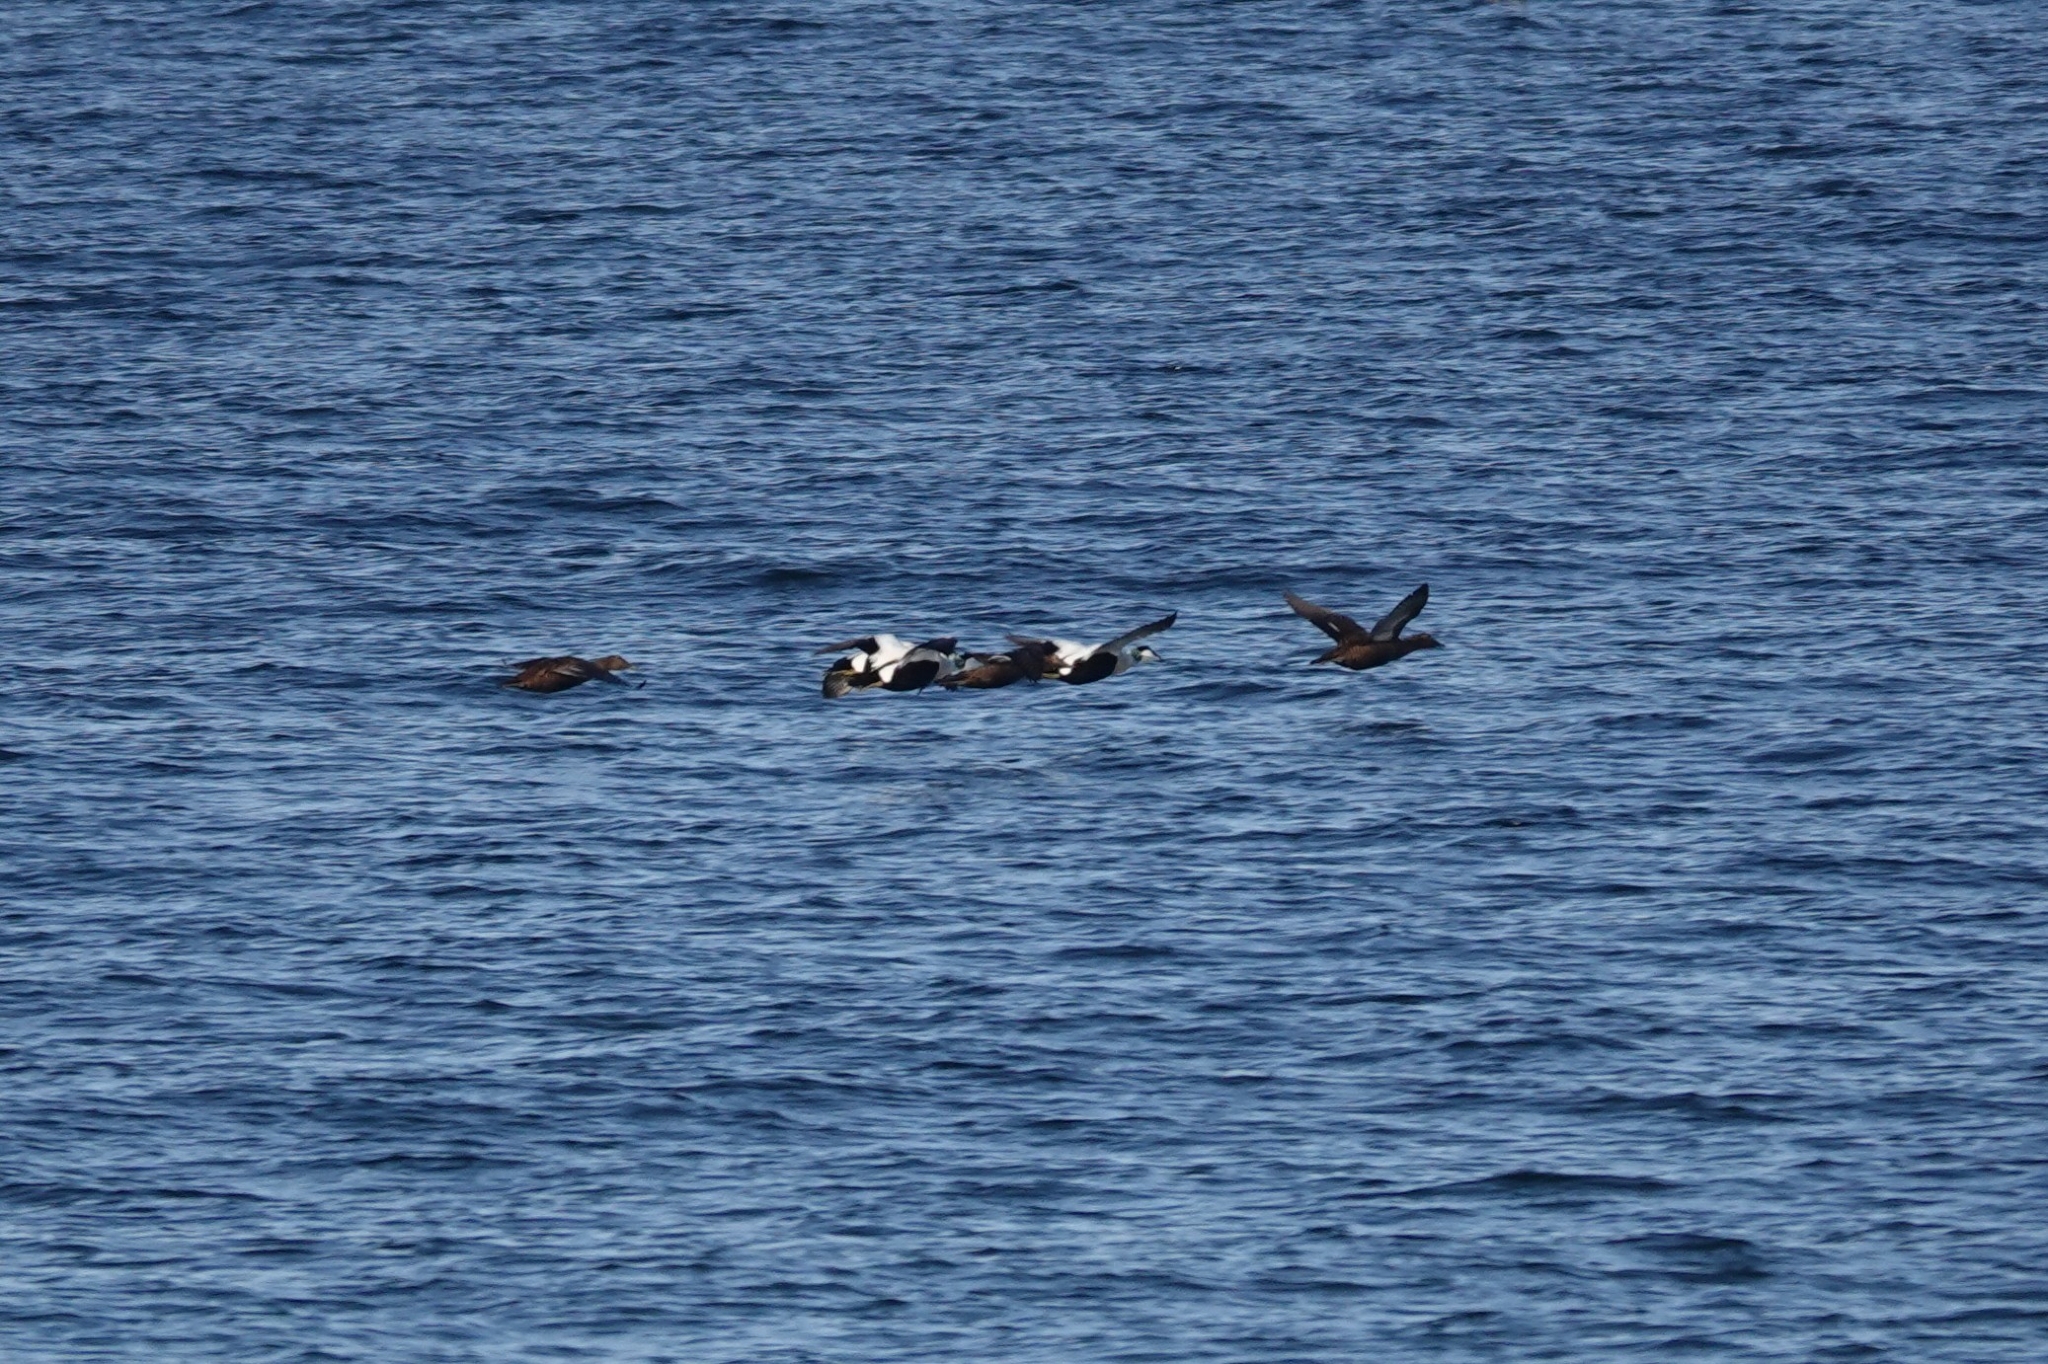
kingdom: Animalia
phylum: Chordata
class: Aves
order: Anseriformes
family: Anatidae
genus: Somateria
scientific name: Somateria mollissima
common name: Common eider
